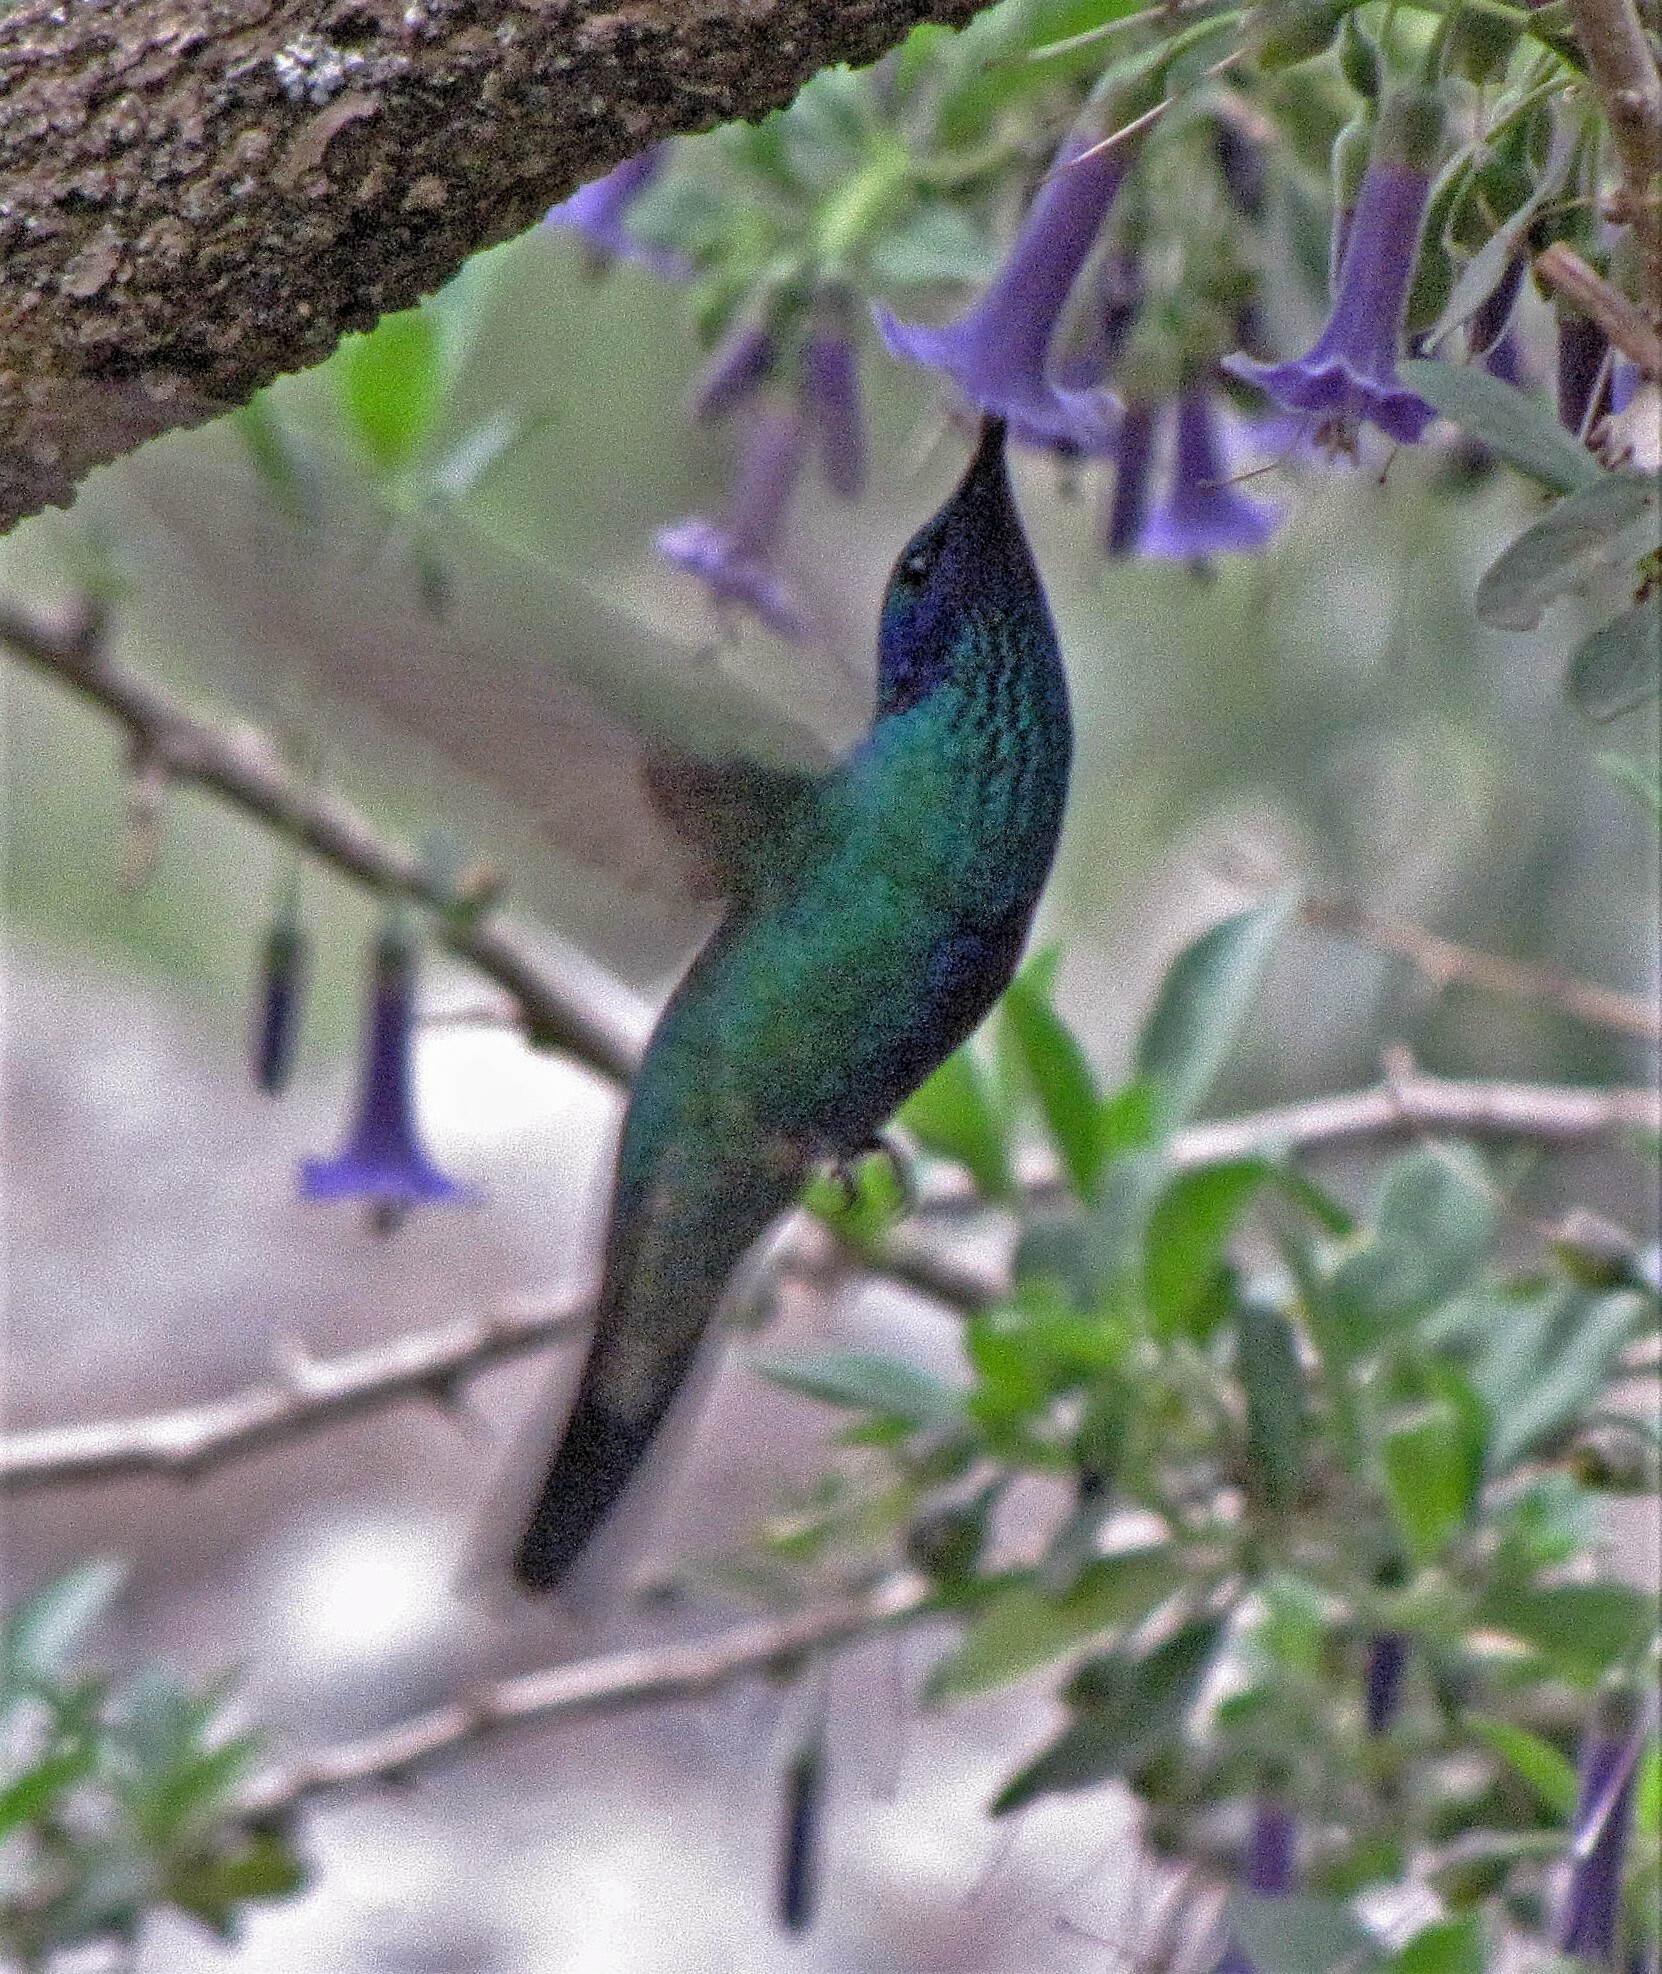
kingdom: Animalia
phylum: Chordata
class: Aves
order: Apodiformes
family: Trochilidae
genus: Colibri
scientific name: Colibri coruscans
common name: Sparkling violetear
